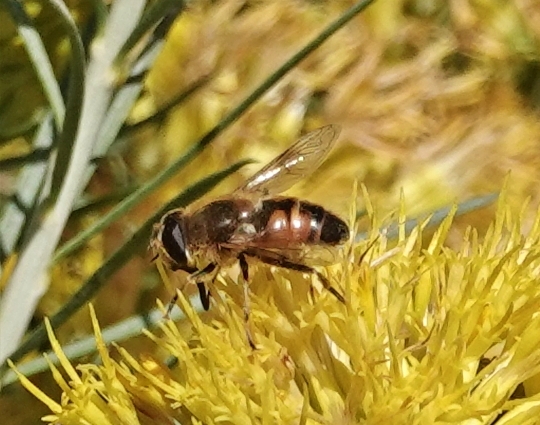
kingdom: Animalia
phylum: Arthropoda
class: Insecta
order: Diptera
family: Syrphidae
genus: Eristalis
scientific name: Eristalis tenax
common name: Drone fly
